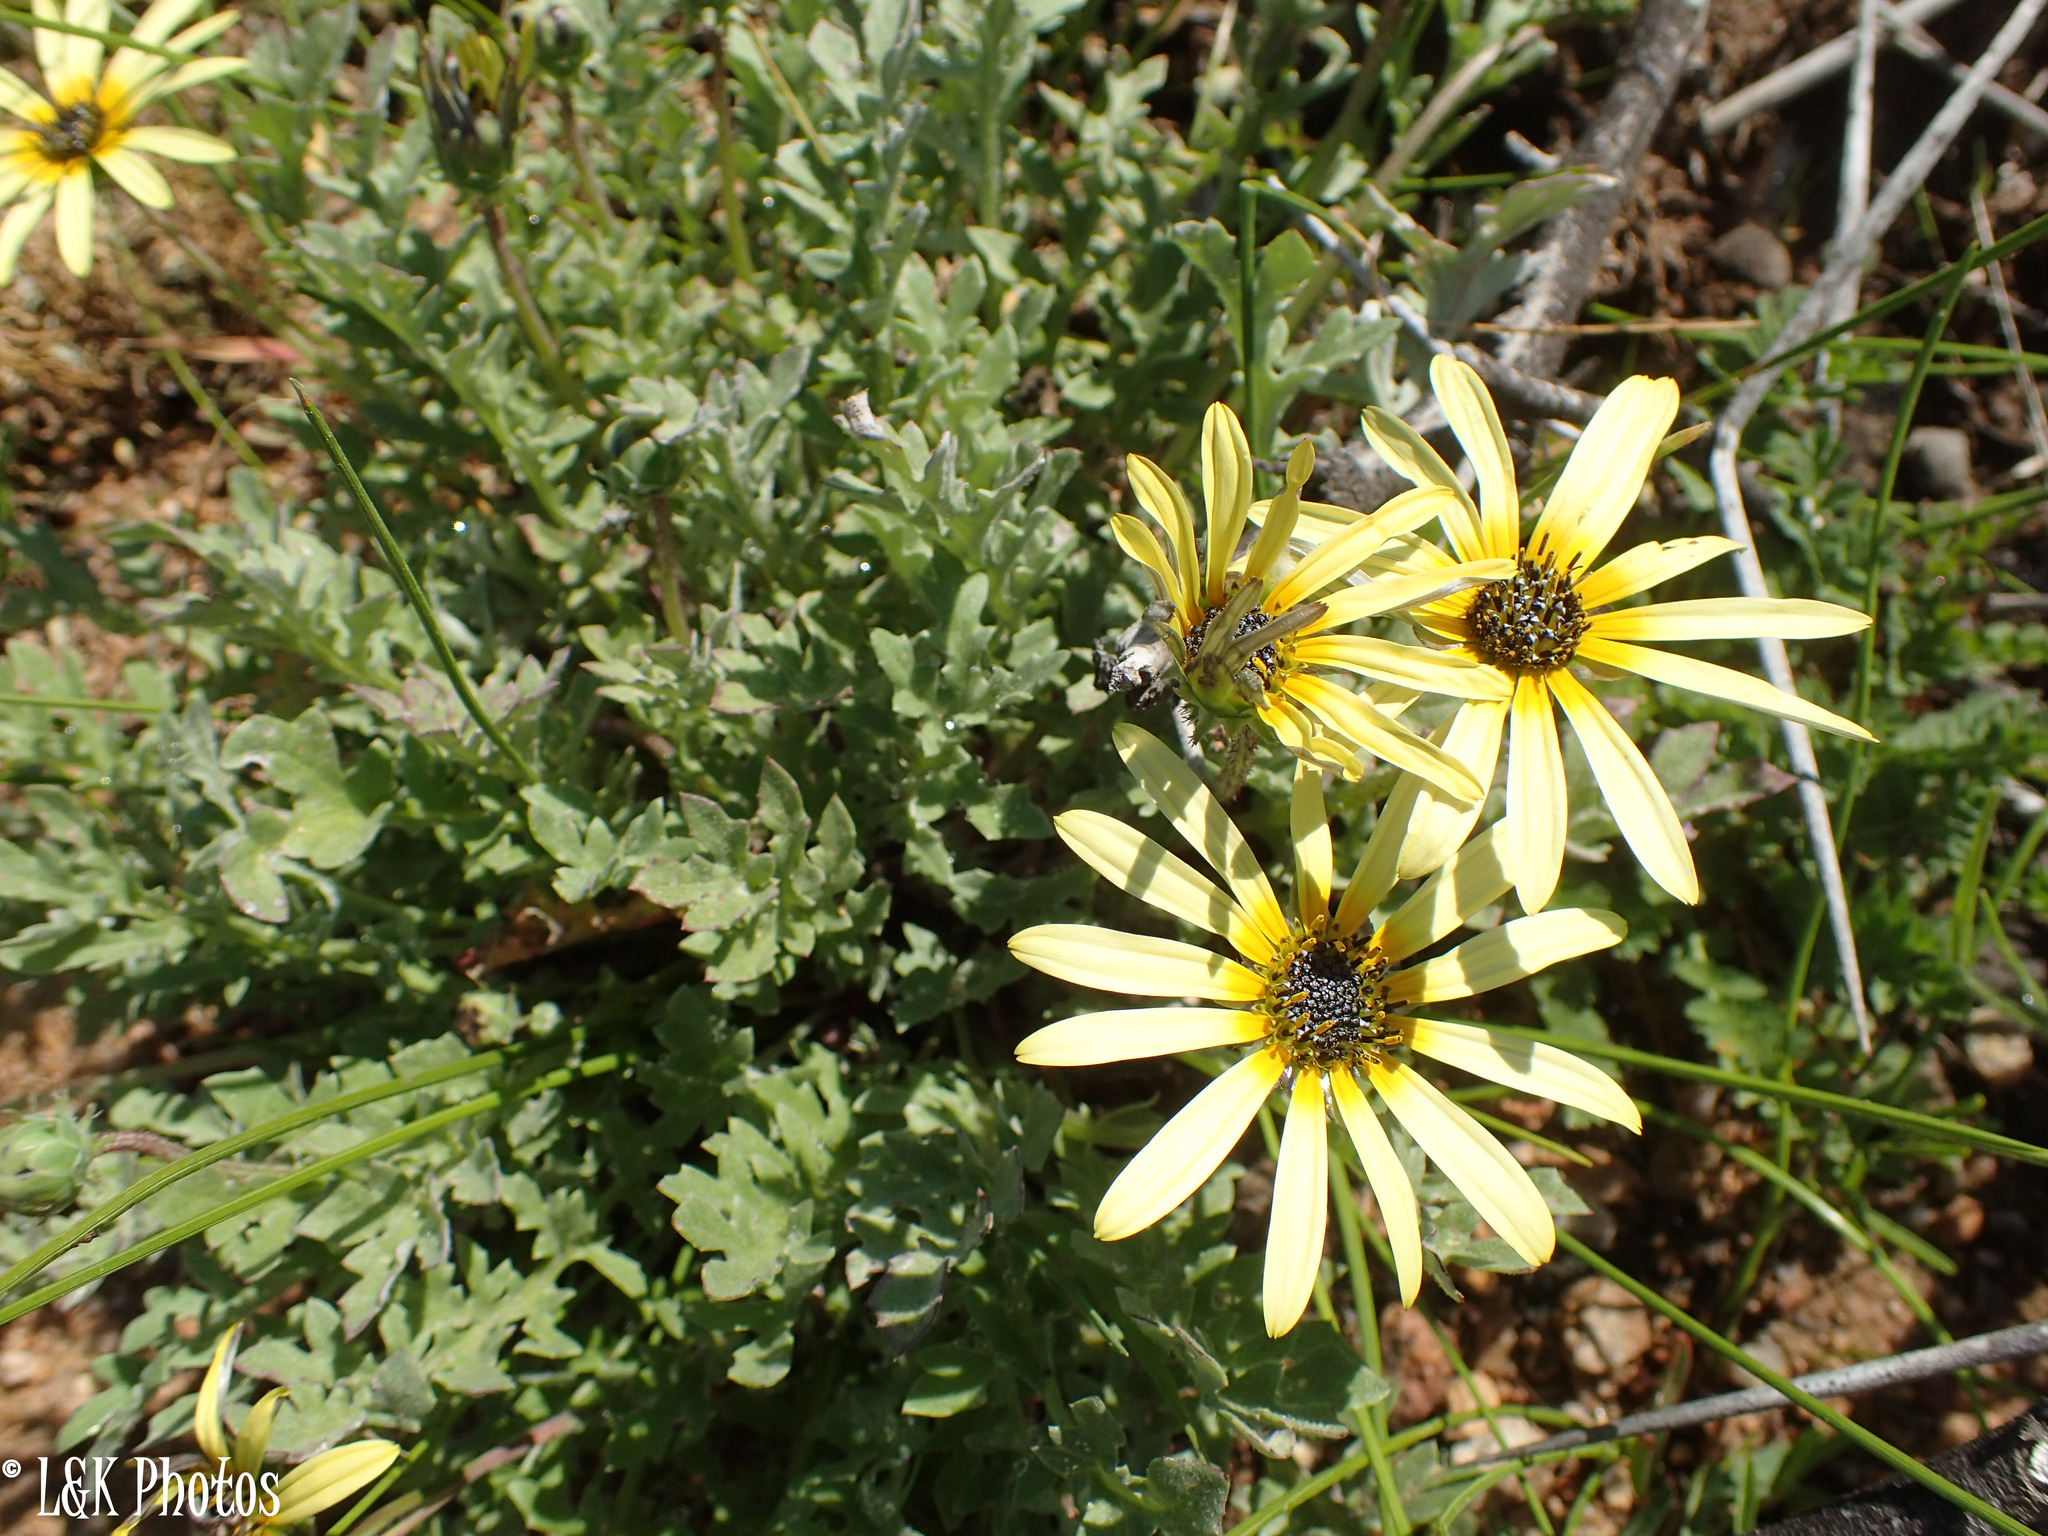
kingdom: Plantae
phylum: Tracheophyta
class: Magnoliopsida
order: Asterales
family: Asteraceae
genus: Arctotheca
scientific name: Arctotheca calendula
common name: Capeweed
